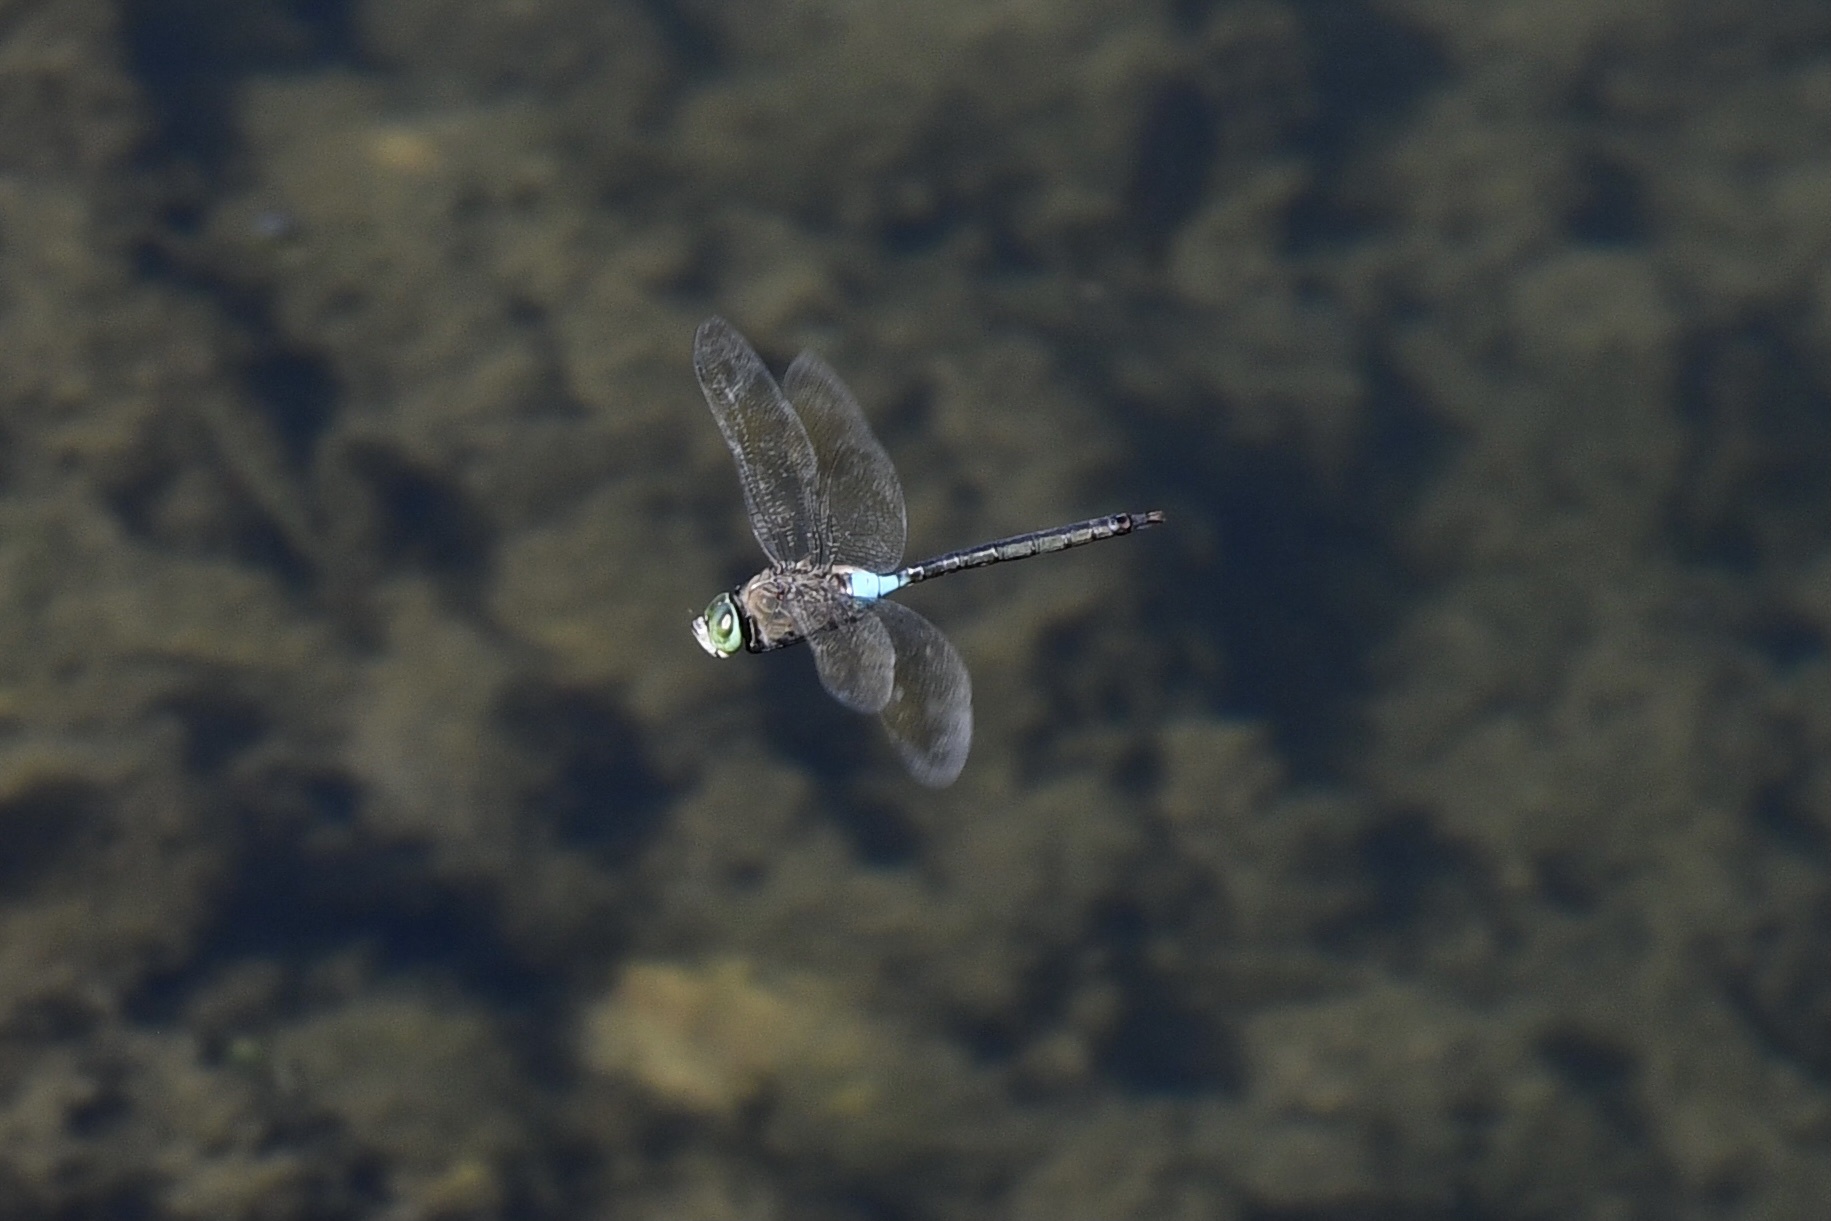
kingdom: Animalia
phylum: Arthropoda
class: Insecta
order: Odonata
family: Aeshnidae
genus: Anax
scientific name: Anax parthenope
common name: Lesser emperor
